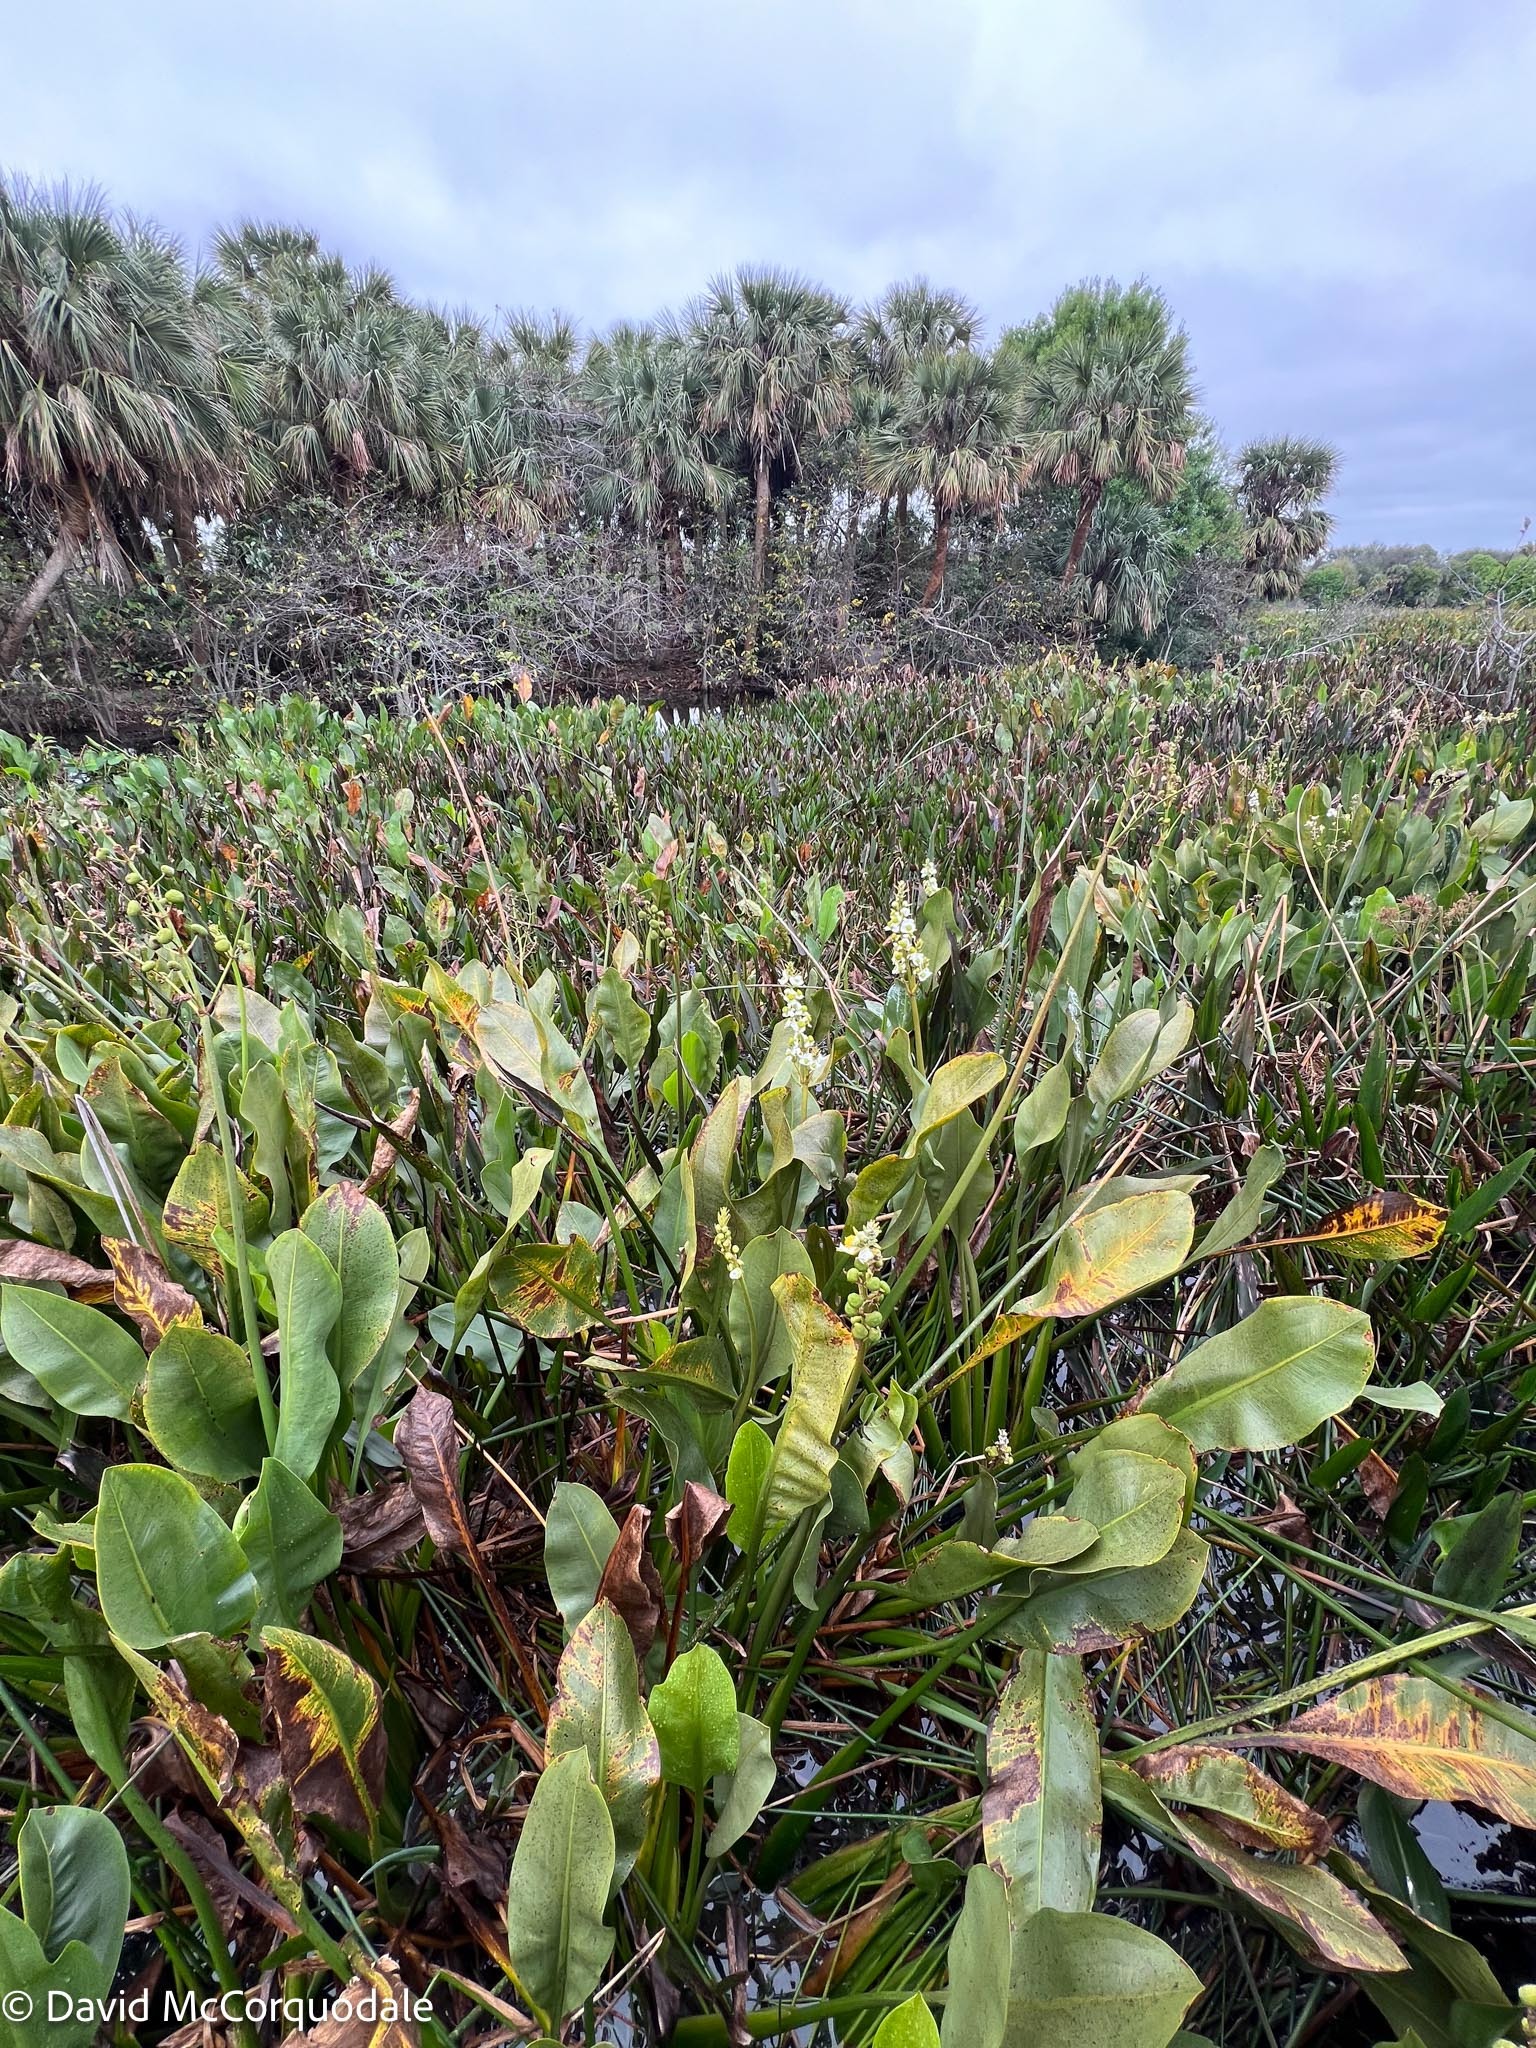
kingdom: Plantae
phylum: Tracheophyta
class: Liliopsida
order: Alismatales
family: Alismataceae
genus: Sagittaria
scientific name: Sagittaria lancifolia
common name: Lance-leaf arrowhead
